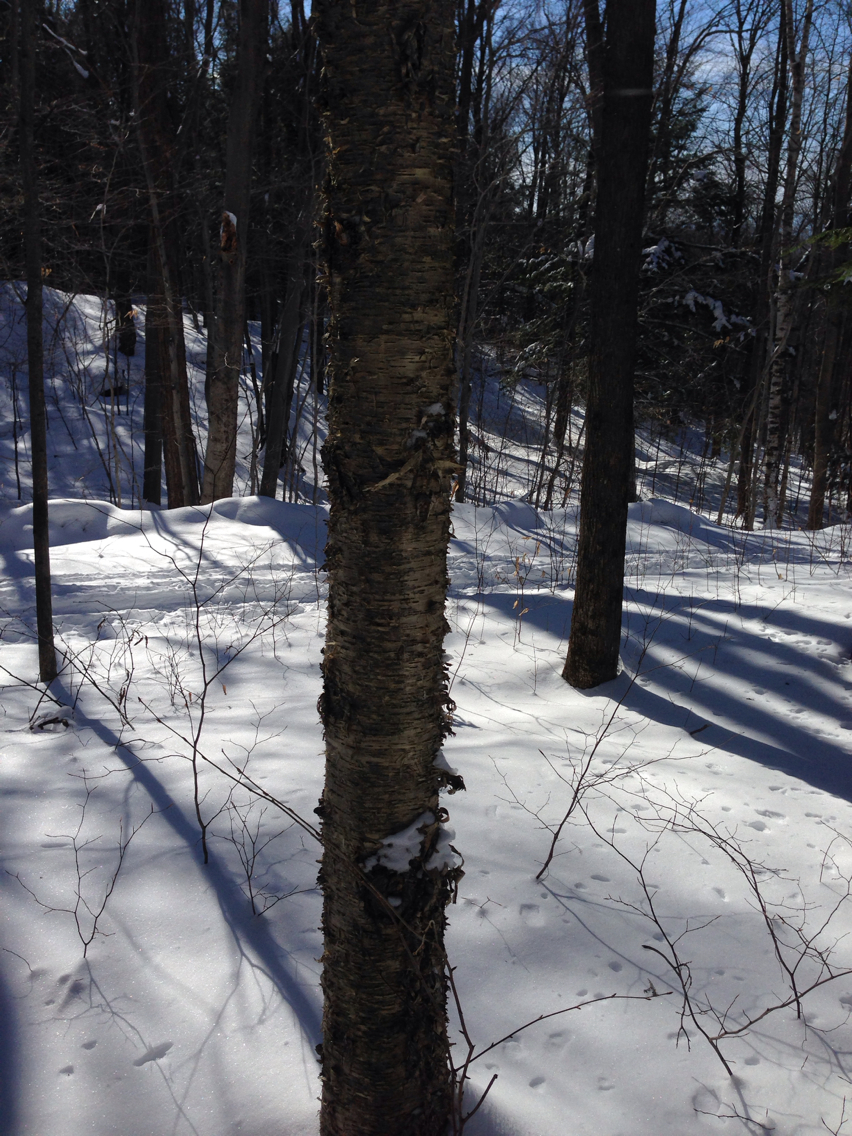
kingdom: Plantae
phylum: Tracheophyta
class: Magnoliopsida
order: Fagales
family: Betulaceae
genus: Betula
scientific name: Betula alleghaniensis
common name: Yellow birch
